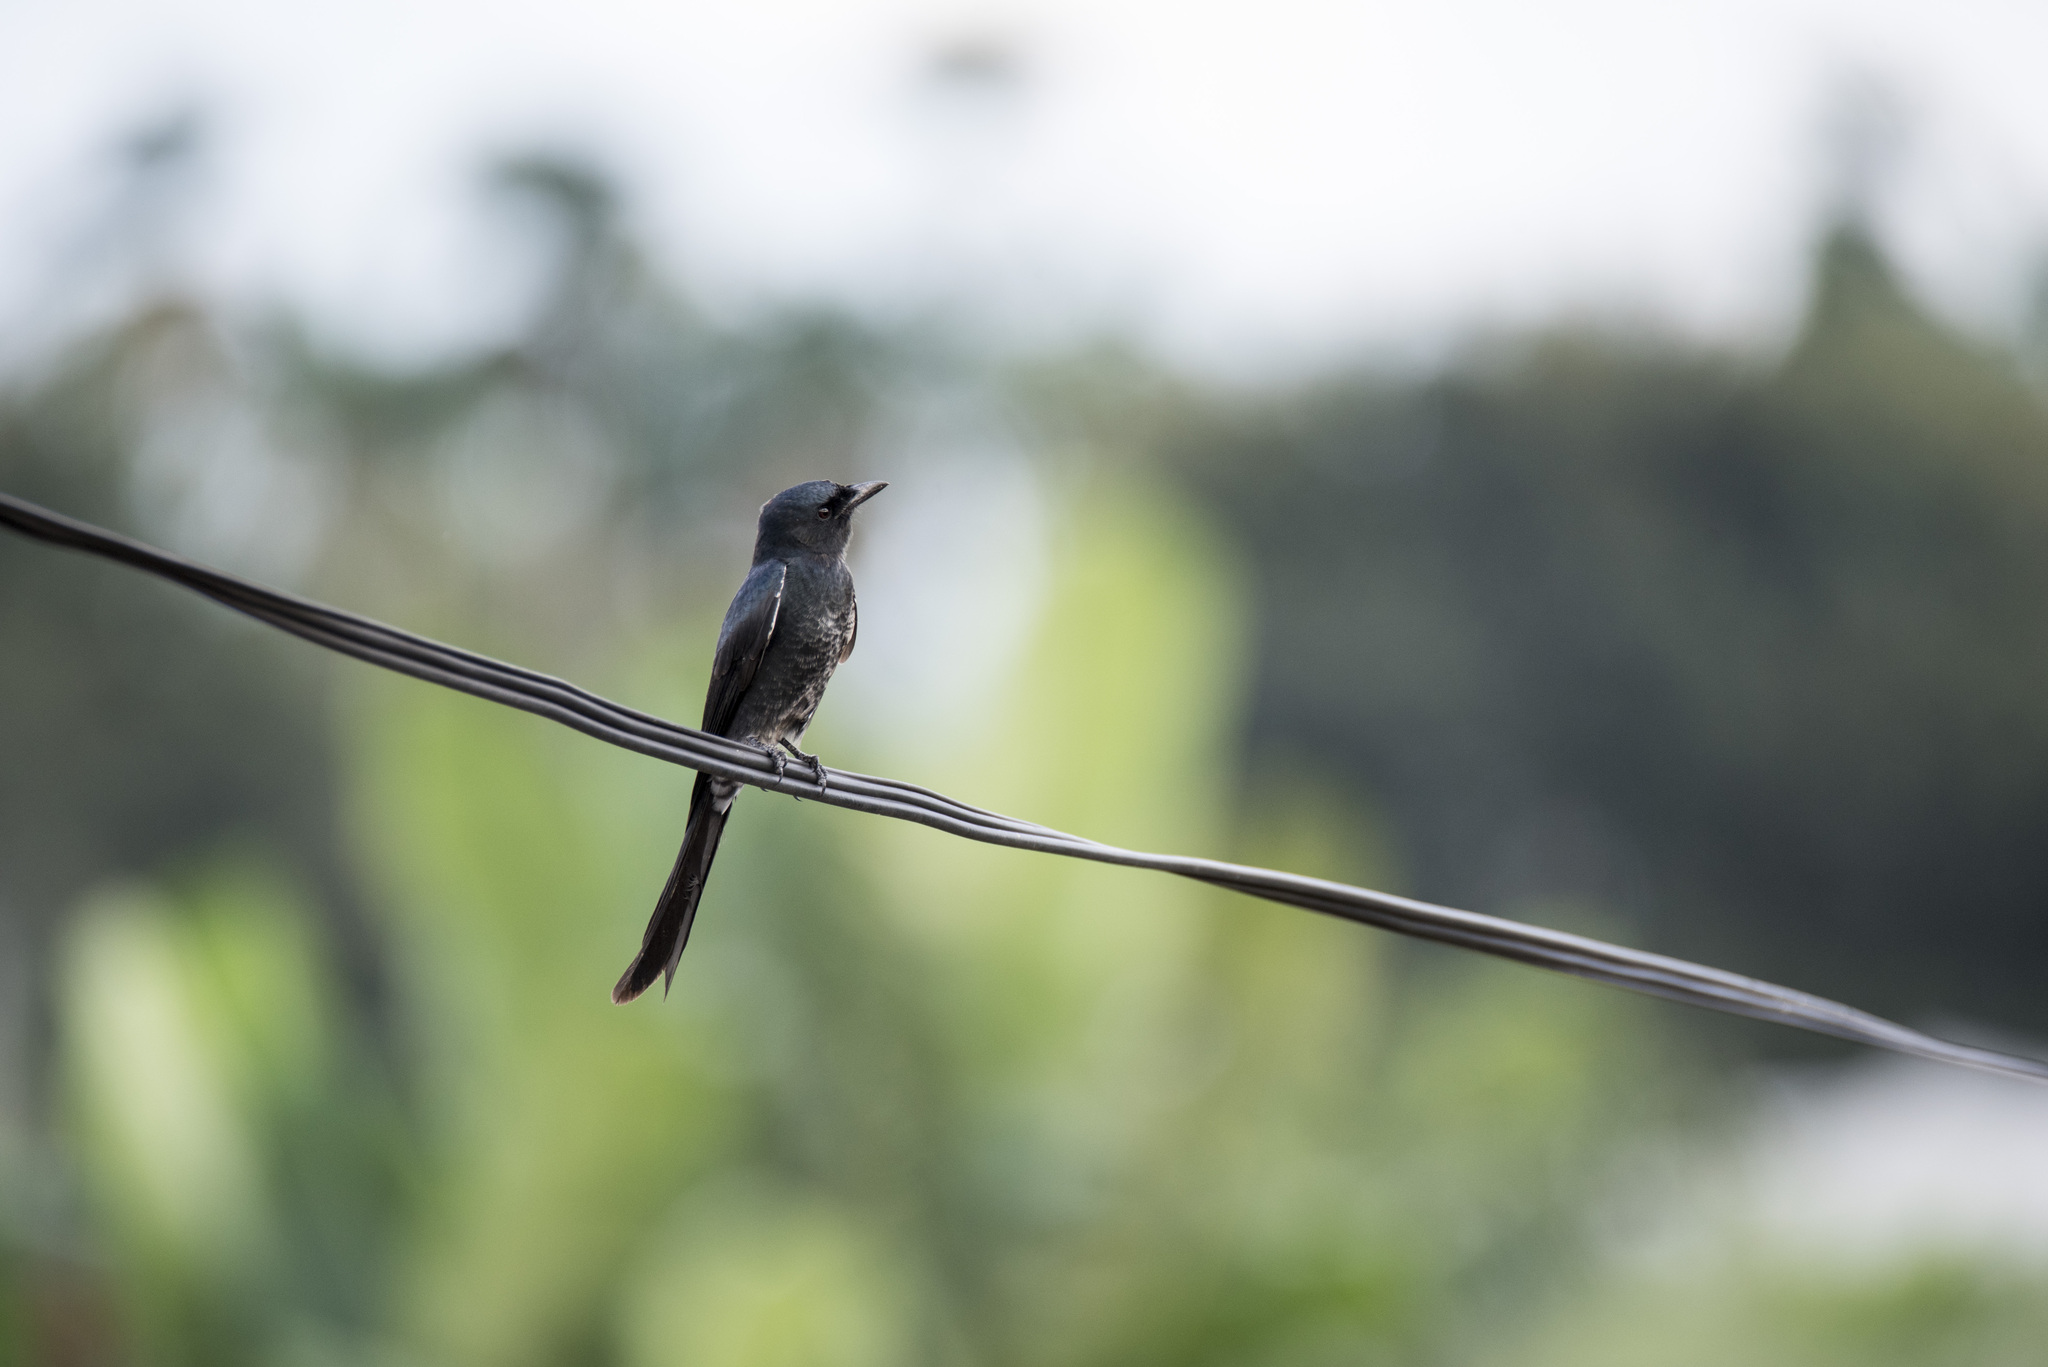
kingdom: Animalia
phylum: Chordata
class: Aves
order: Passeriformes
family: Dicruridae
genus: Dicrurus
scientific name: Dicrurus macrocercus
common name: Black drongo
